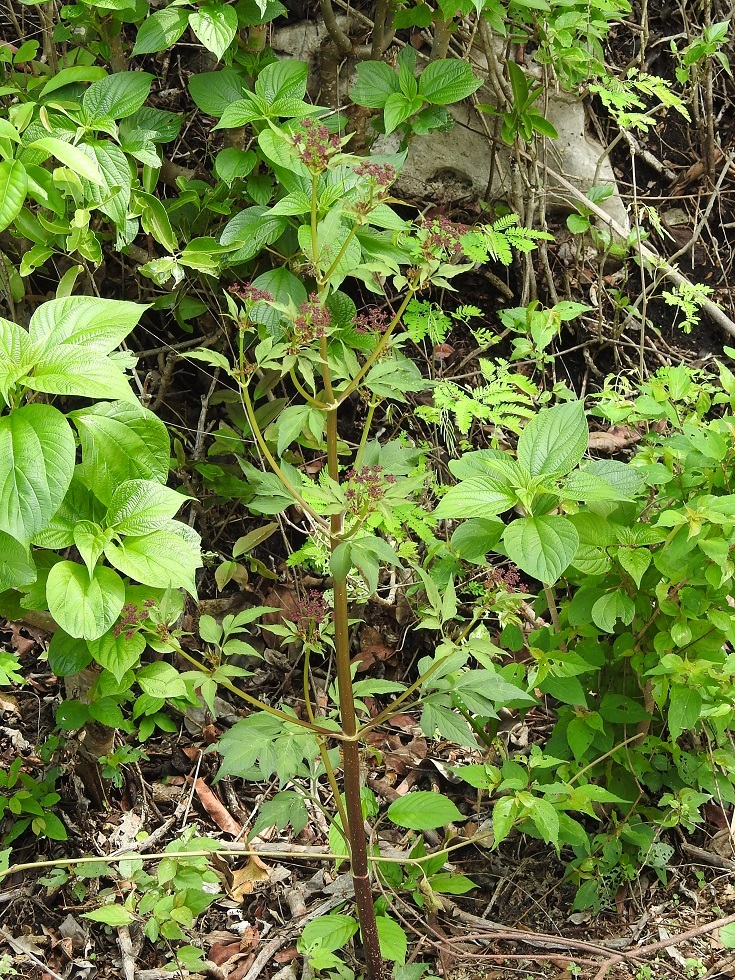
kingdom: Plantae
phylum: Tracheophyta
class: Magnoliopsida
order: Apiales
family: Apiaceae
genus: Arracacia
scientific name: Arracacia nelsonii
